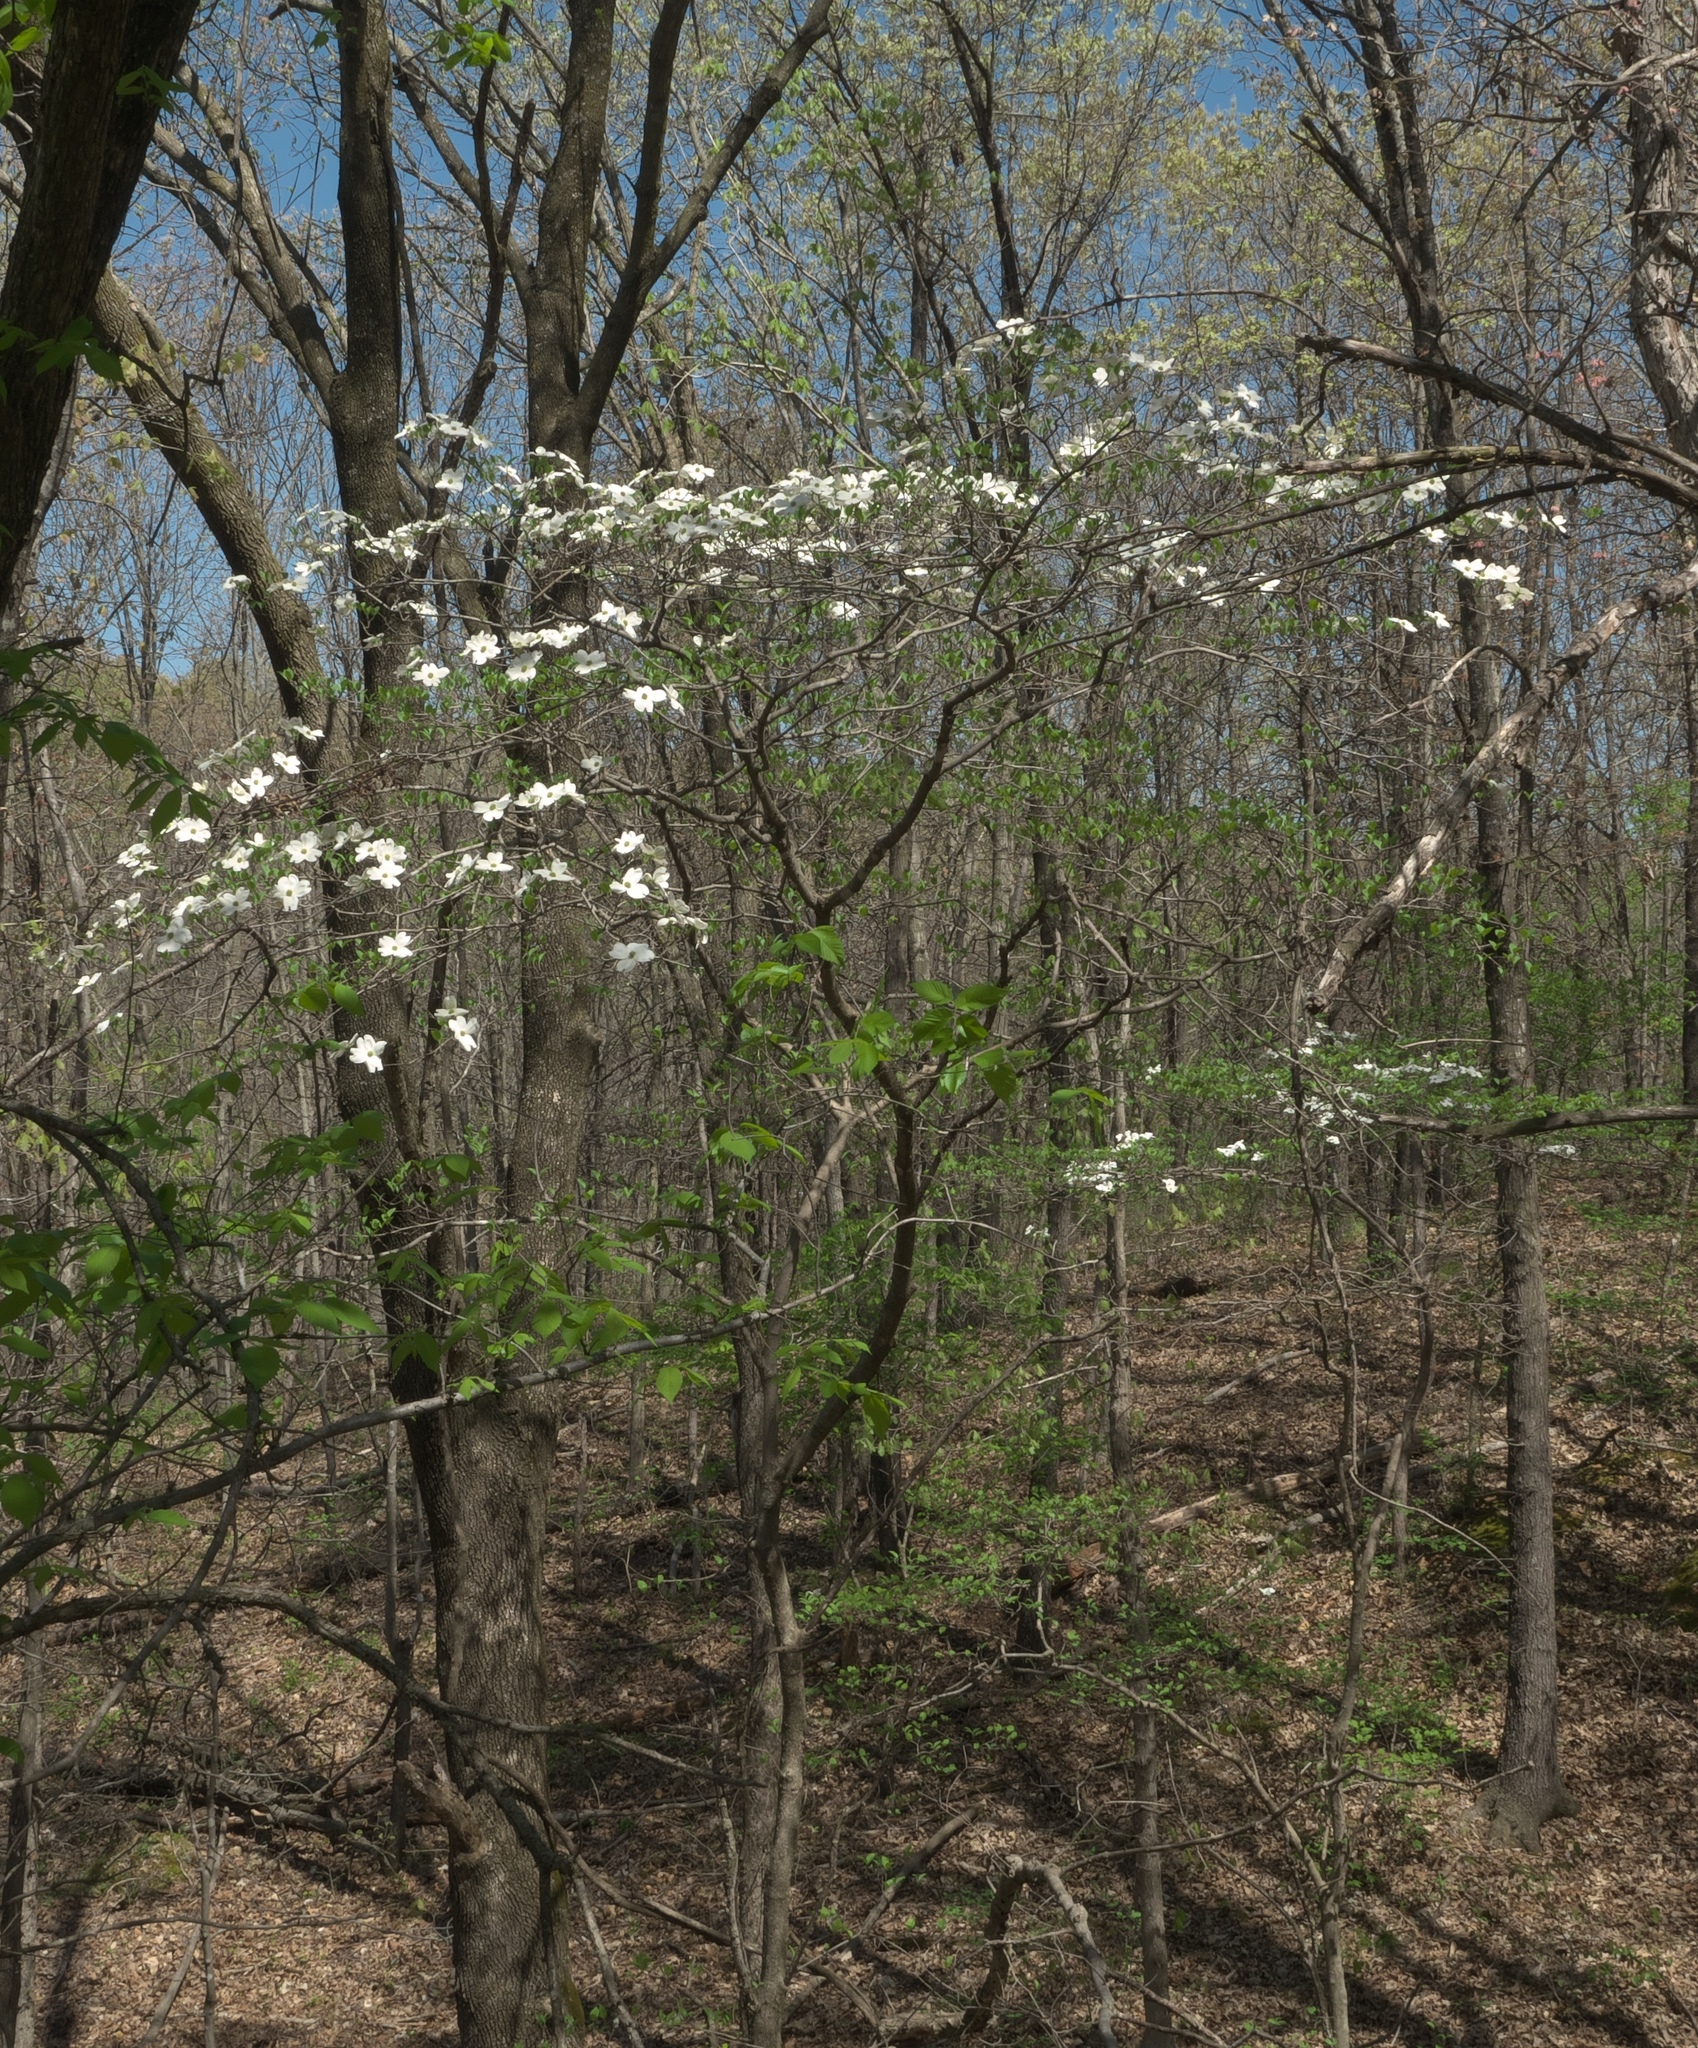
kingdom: Plantae
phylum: Tracheophyta
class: Magnoliopsida
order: Cornales
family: Cornaceae
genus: Cornus
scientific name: Cornus florida
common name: Flowering dogwood
